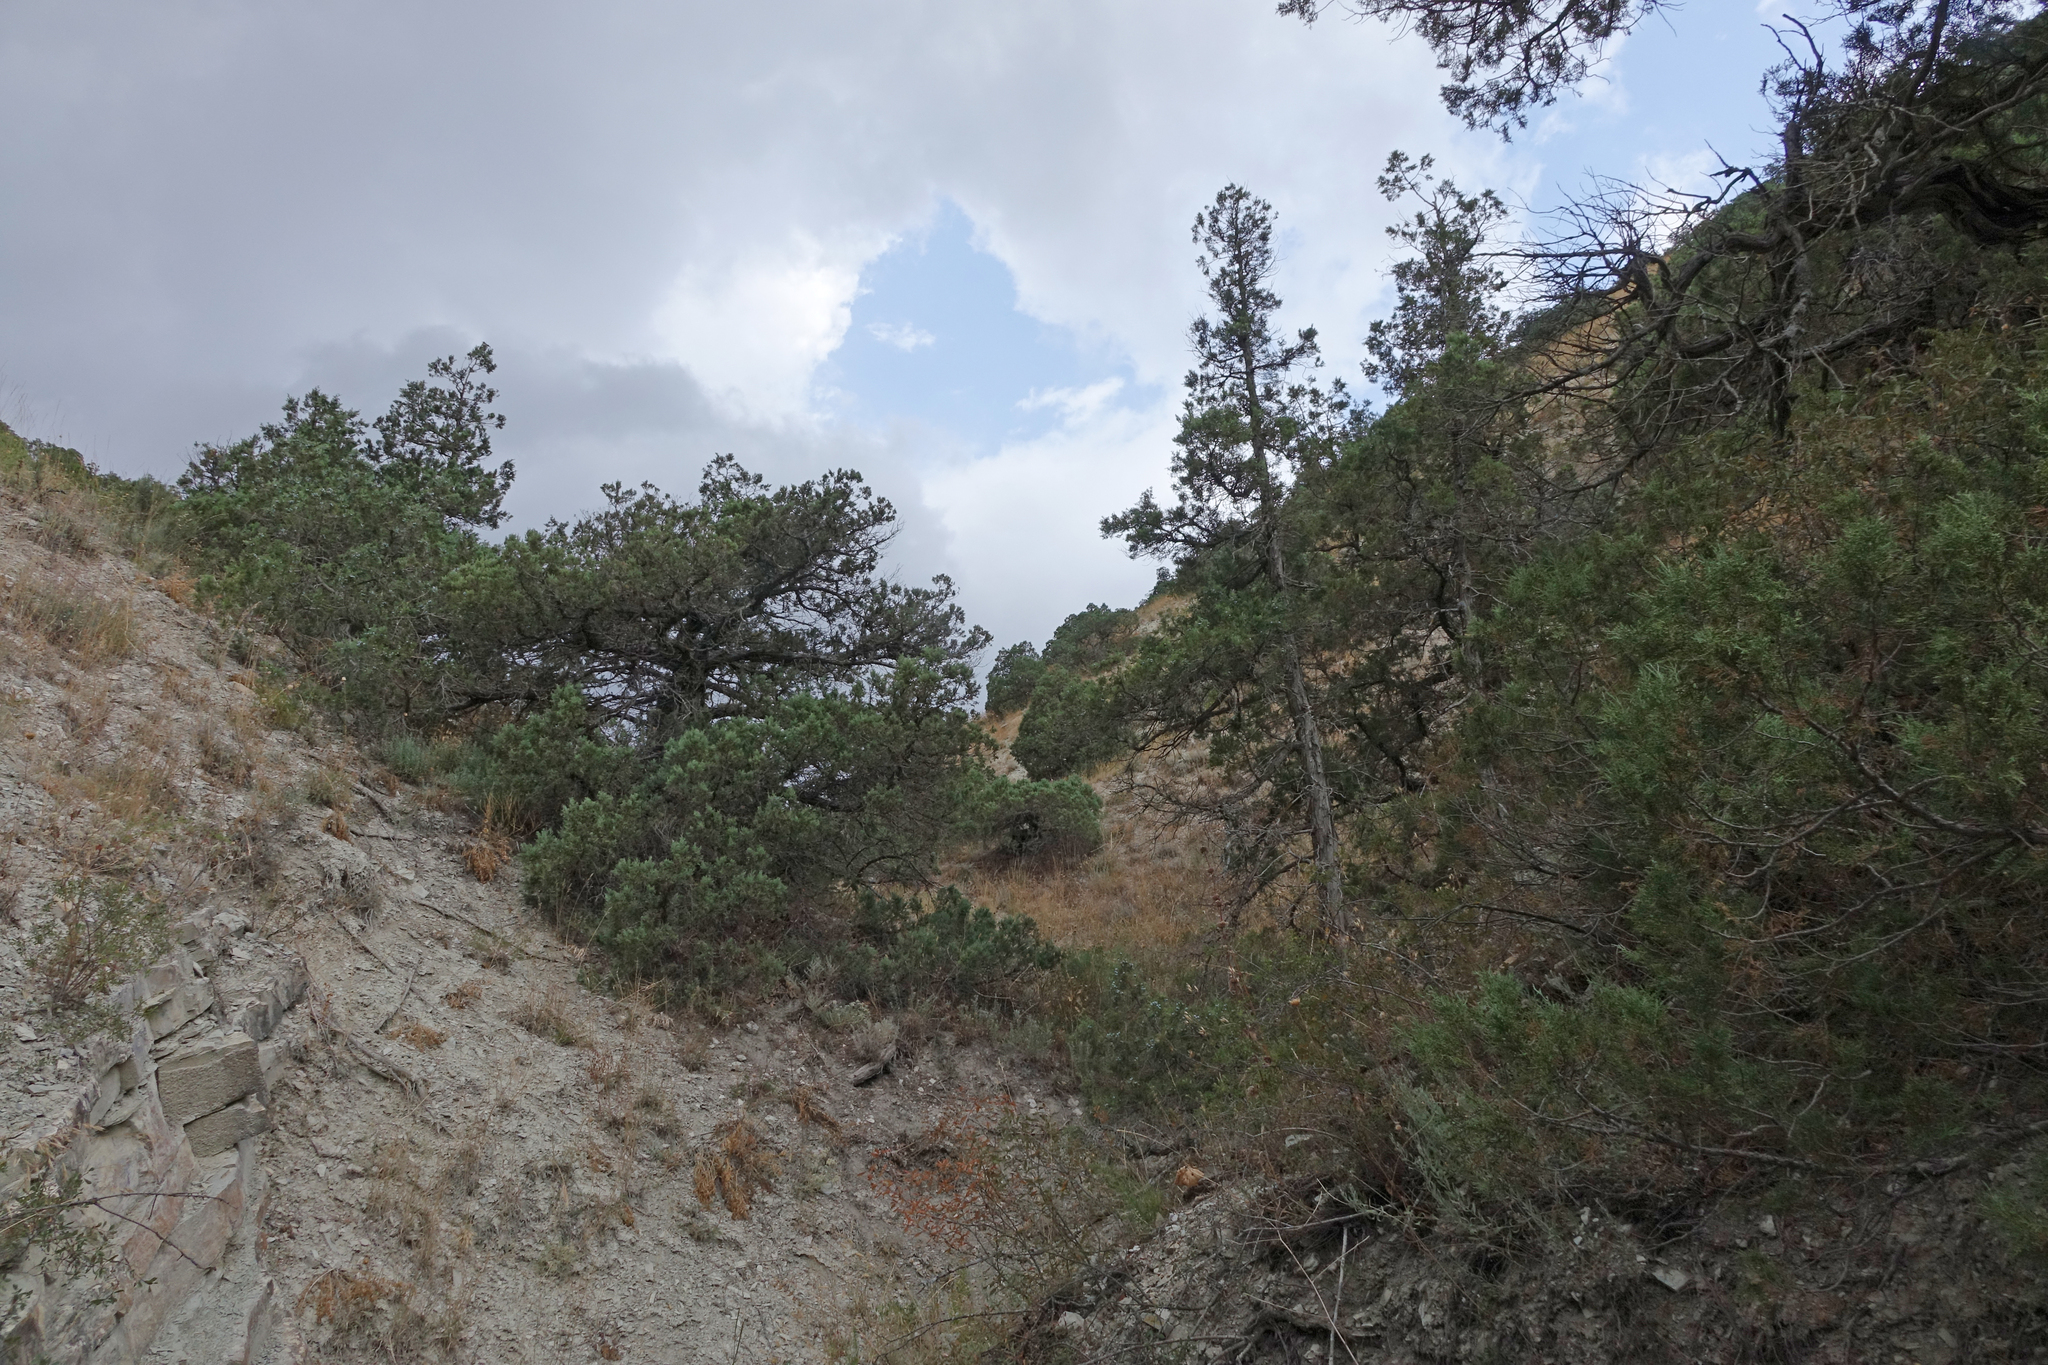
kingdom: Plantae
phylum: Tracheophyta
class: Pinopsida
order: Pinales
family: Cupressaceae
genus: Juniperus
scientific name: Juniperus excelsa
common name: Crimean juniper
